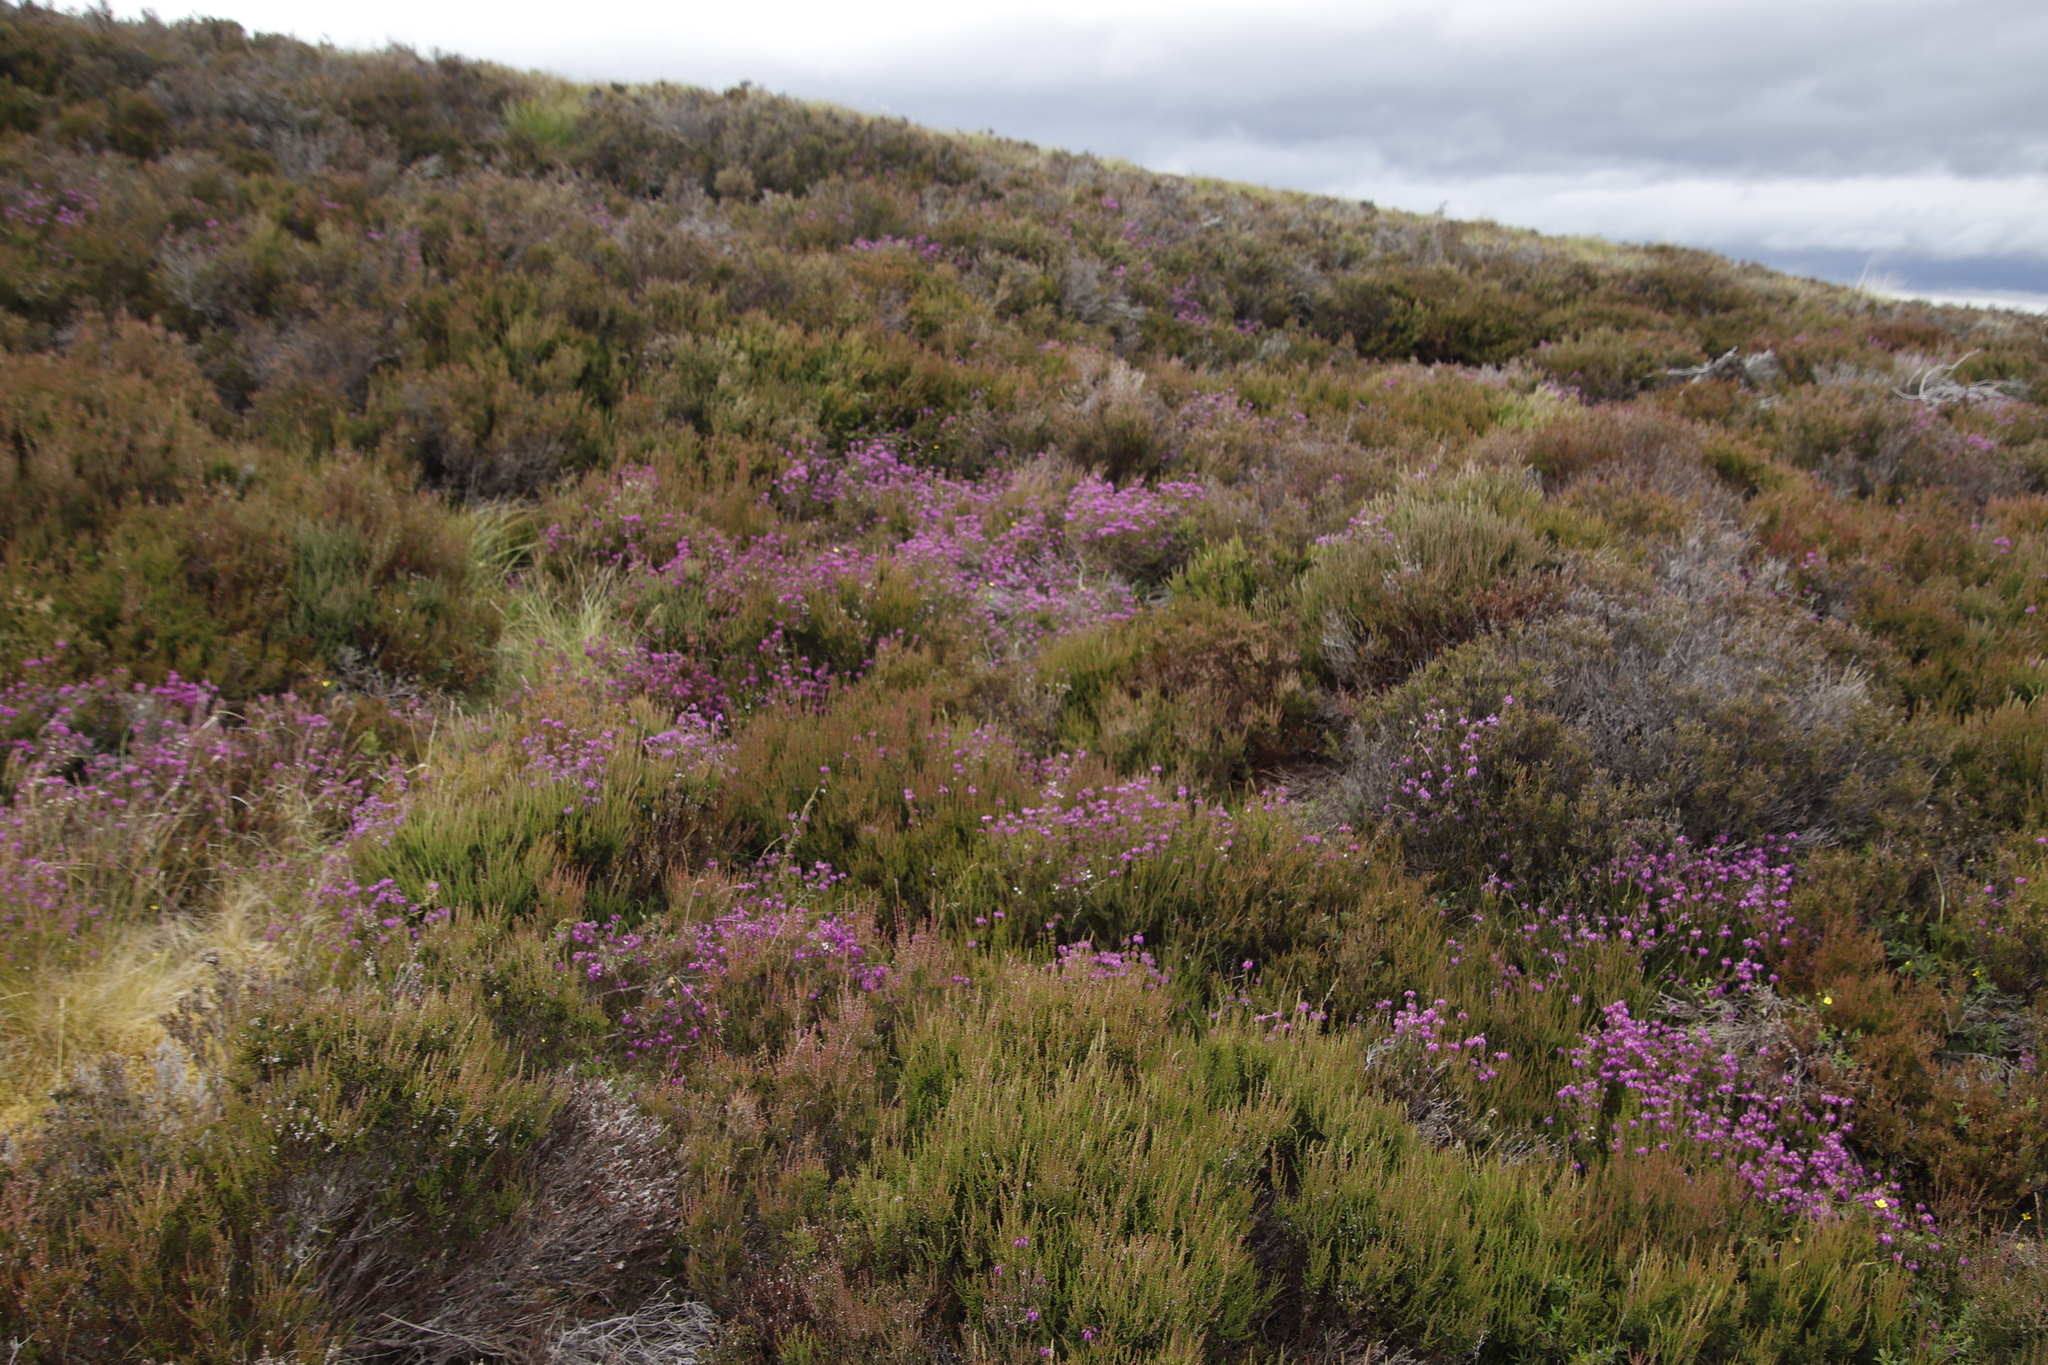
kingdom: Plantae
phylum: Tracheophyta
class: Magnoliopsida
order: Ericales
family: Ericaceae
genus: Erica
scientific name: Erica cinerea
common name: Bell heather
